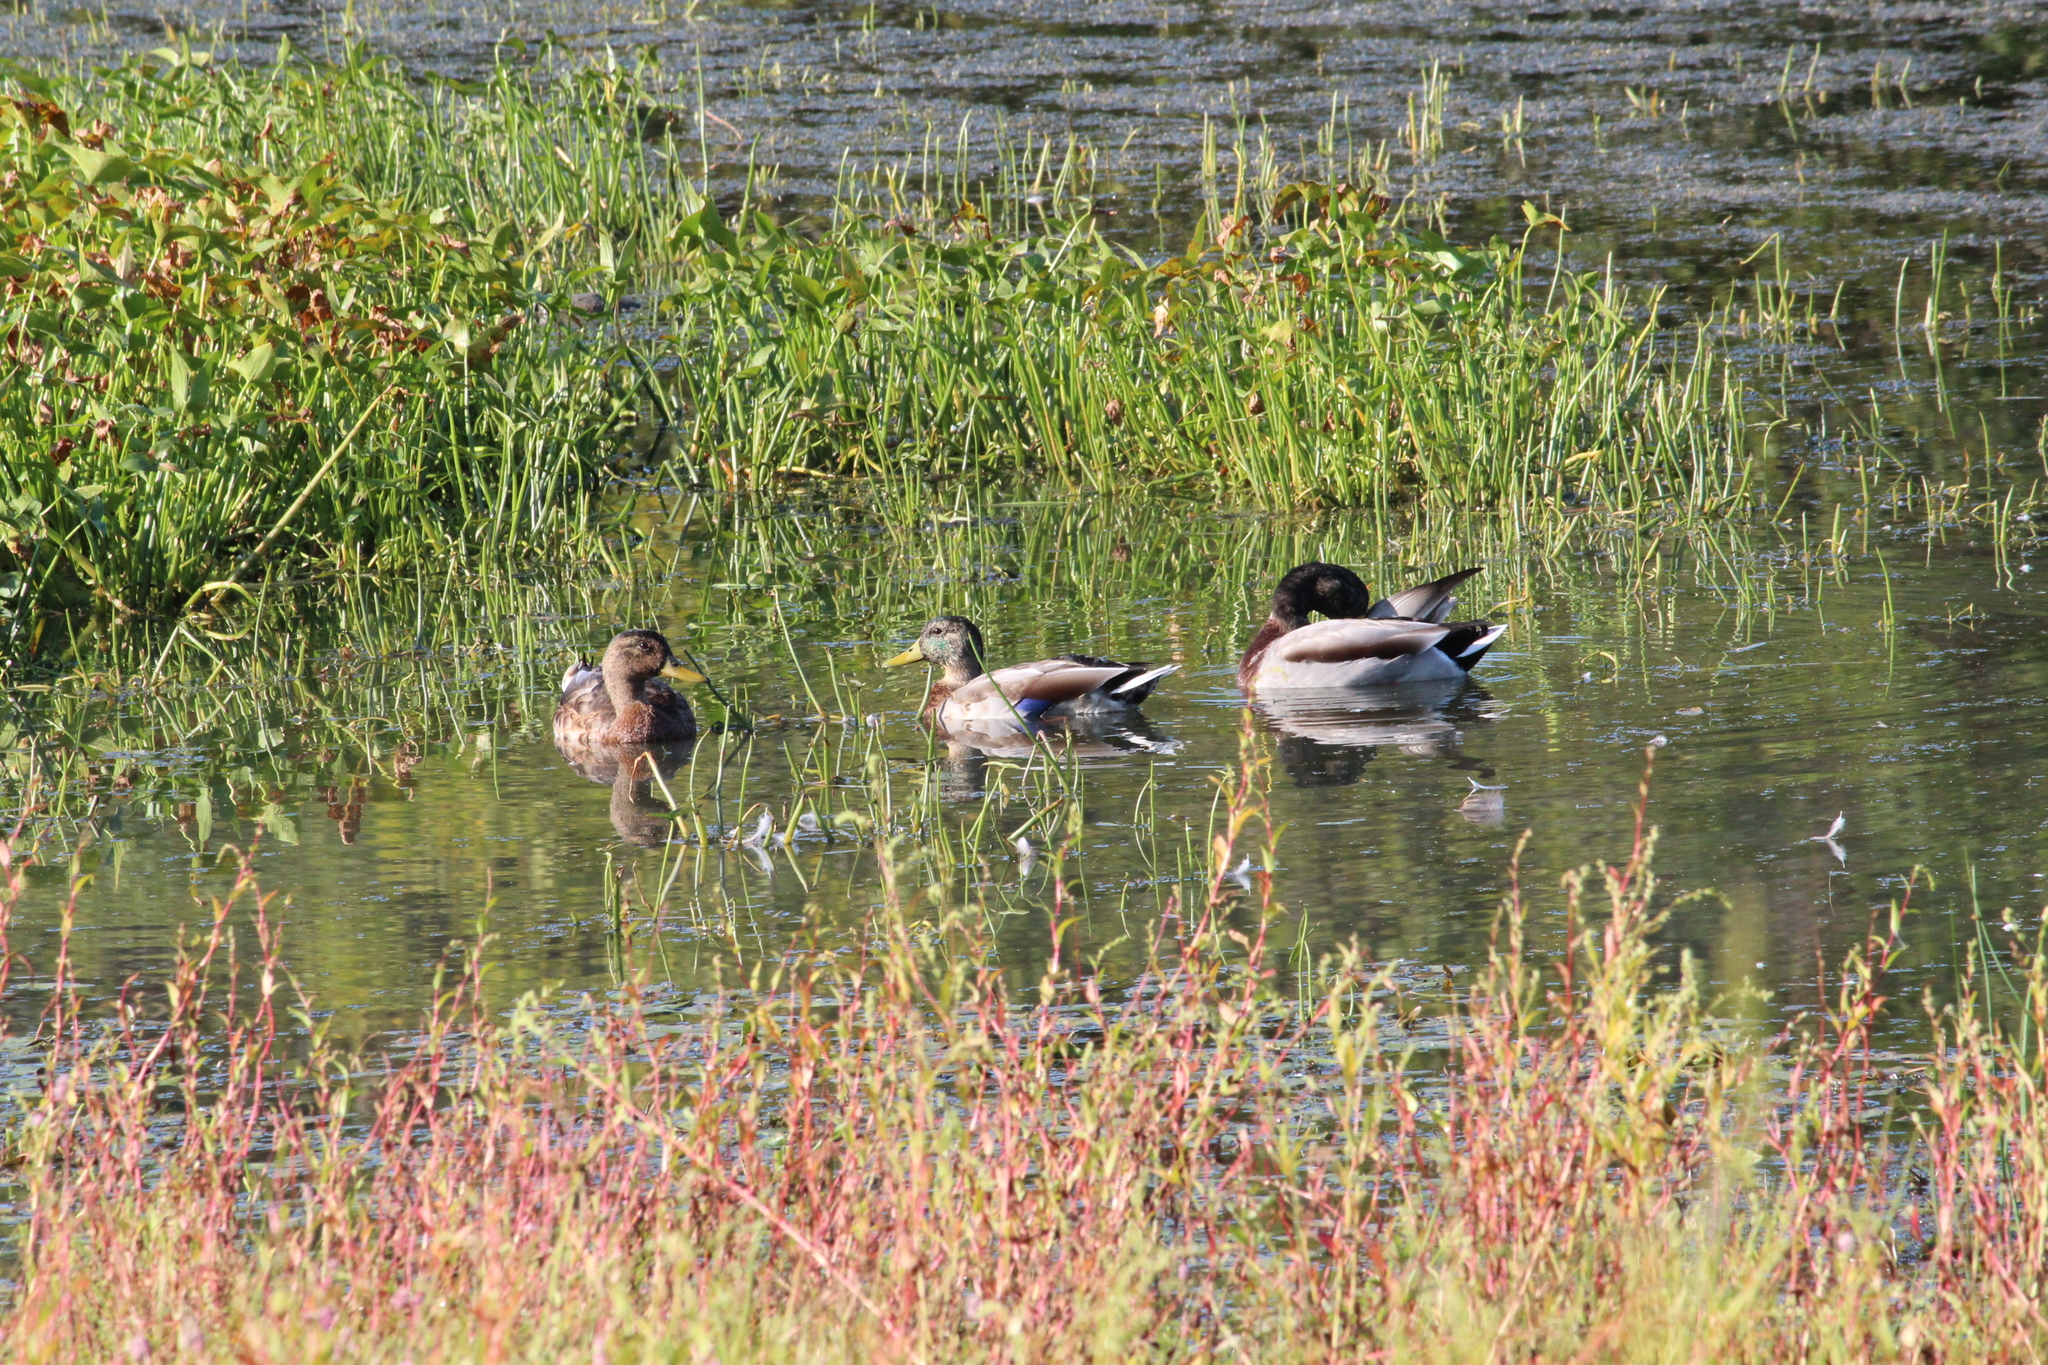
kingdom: Animalia
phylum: Chordata
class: Aves
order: Anseriformes
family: Anatidae
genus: Anas
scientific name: Anas platyrhynchos
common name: Mallard
